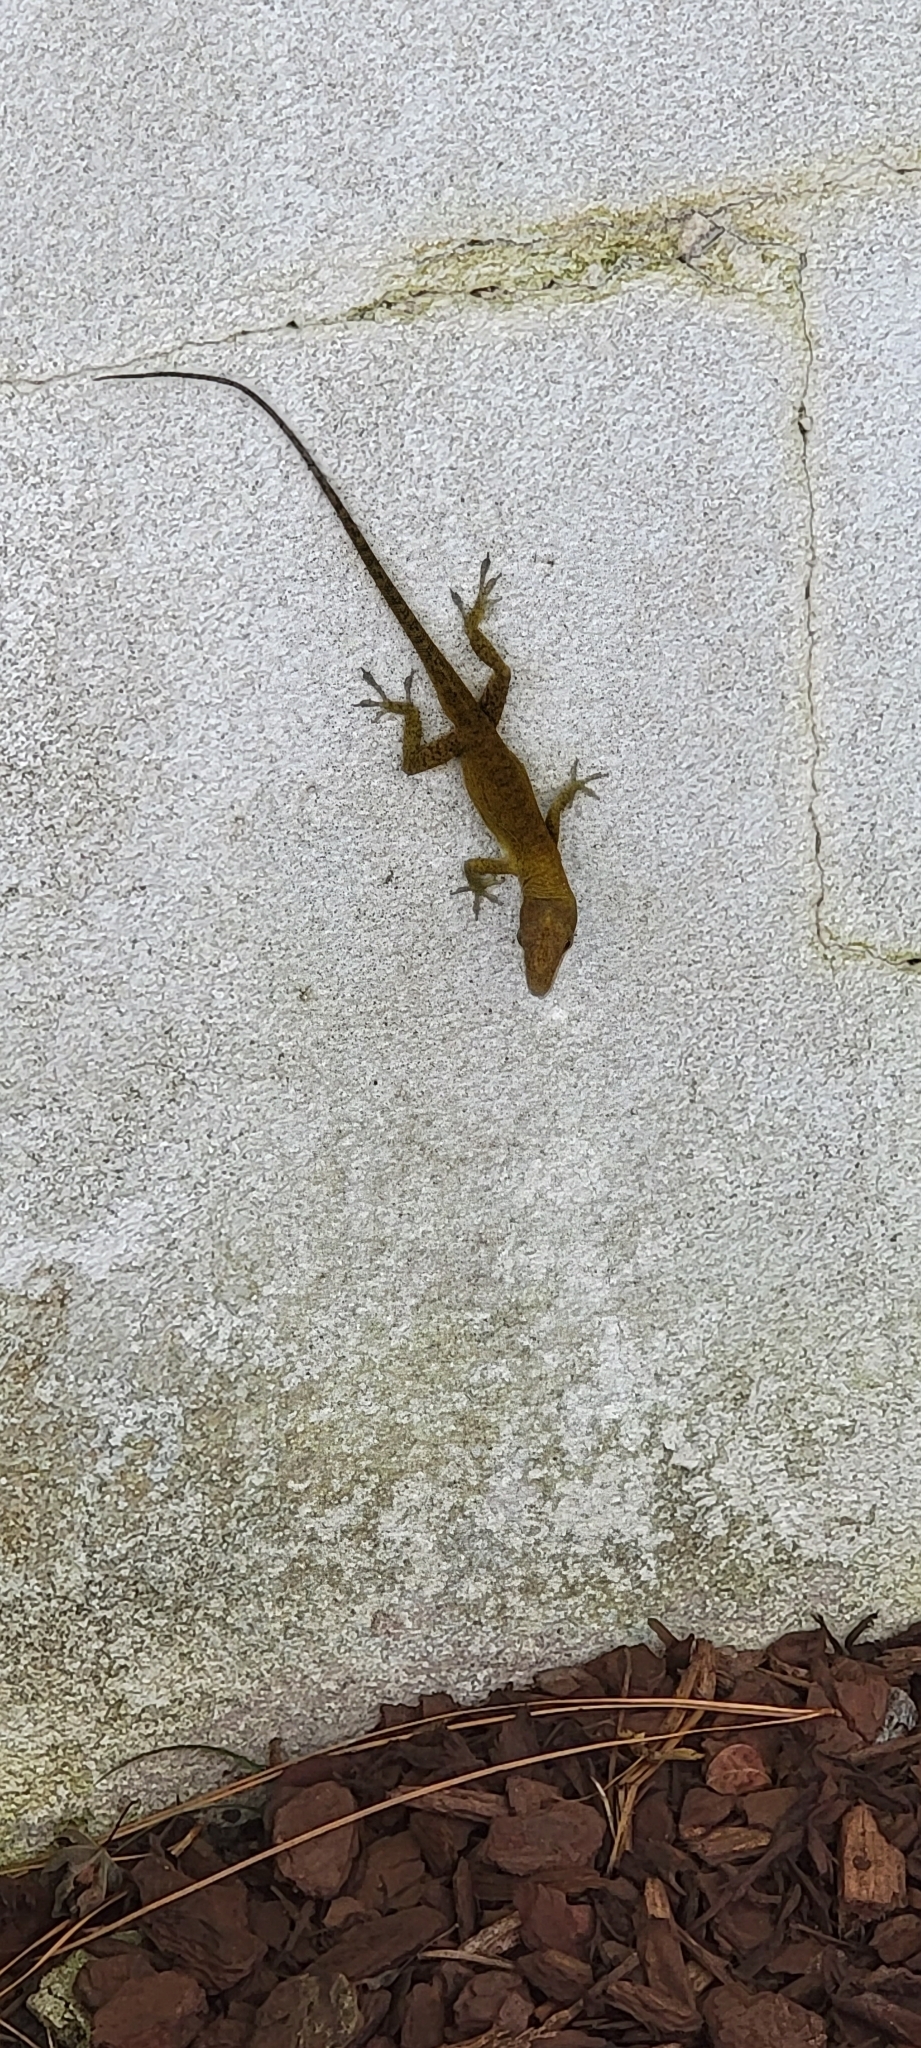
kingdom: Animalia
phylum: Chordata
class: Squamata
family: Dactyloidae
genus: Anolis
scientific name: Anolis carolinensis
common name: Green anole
